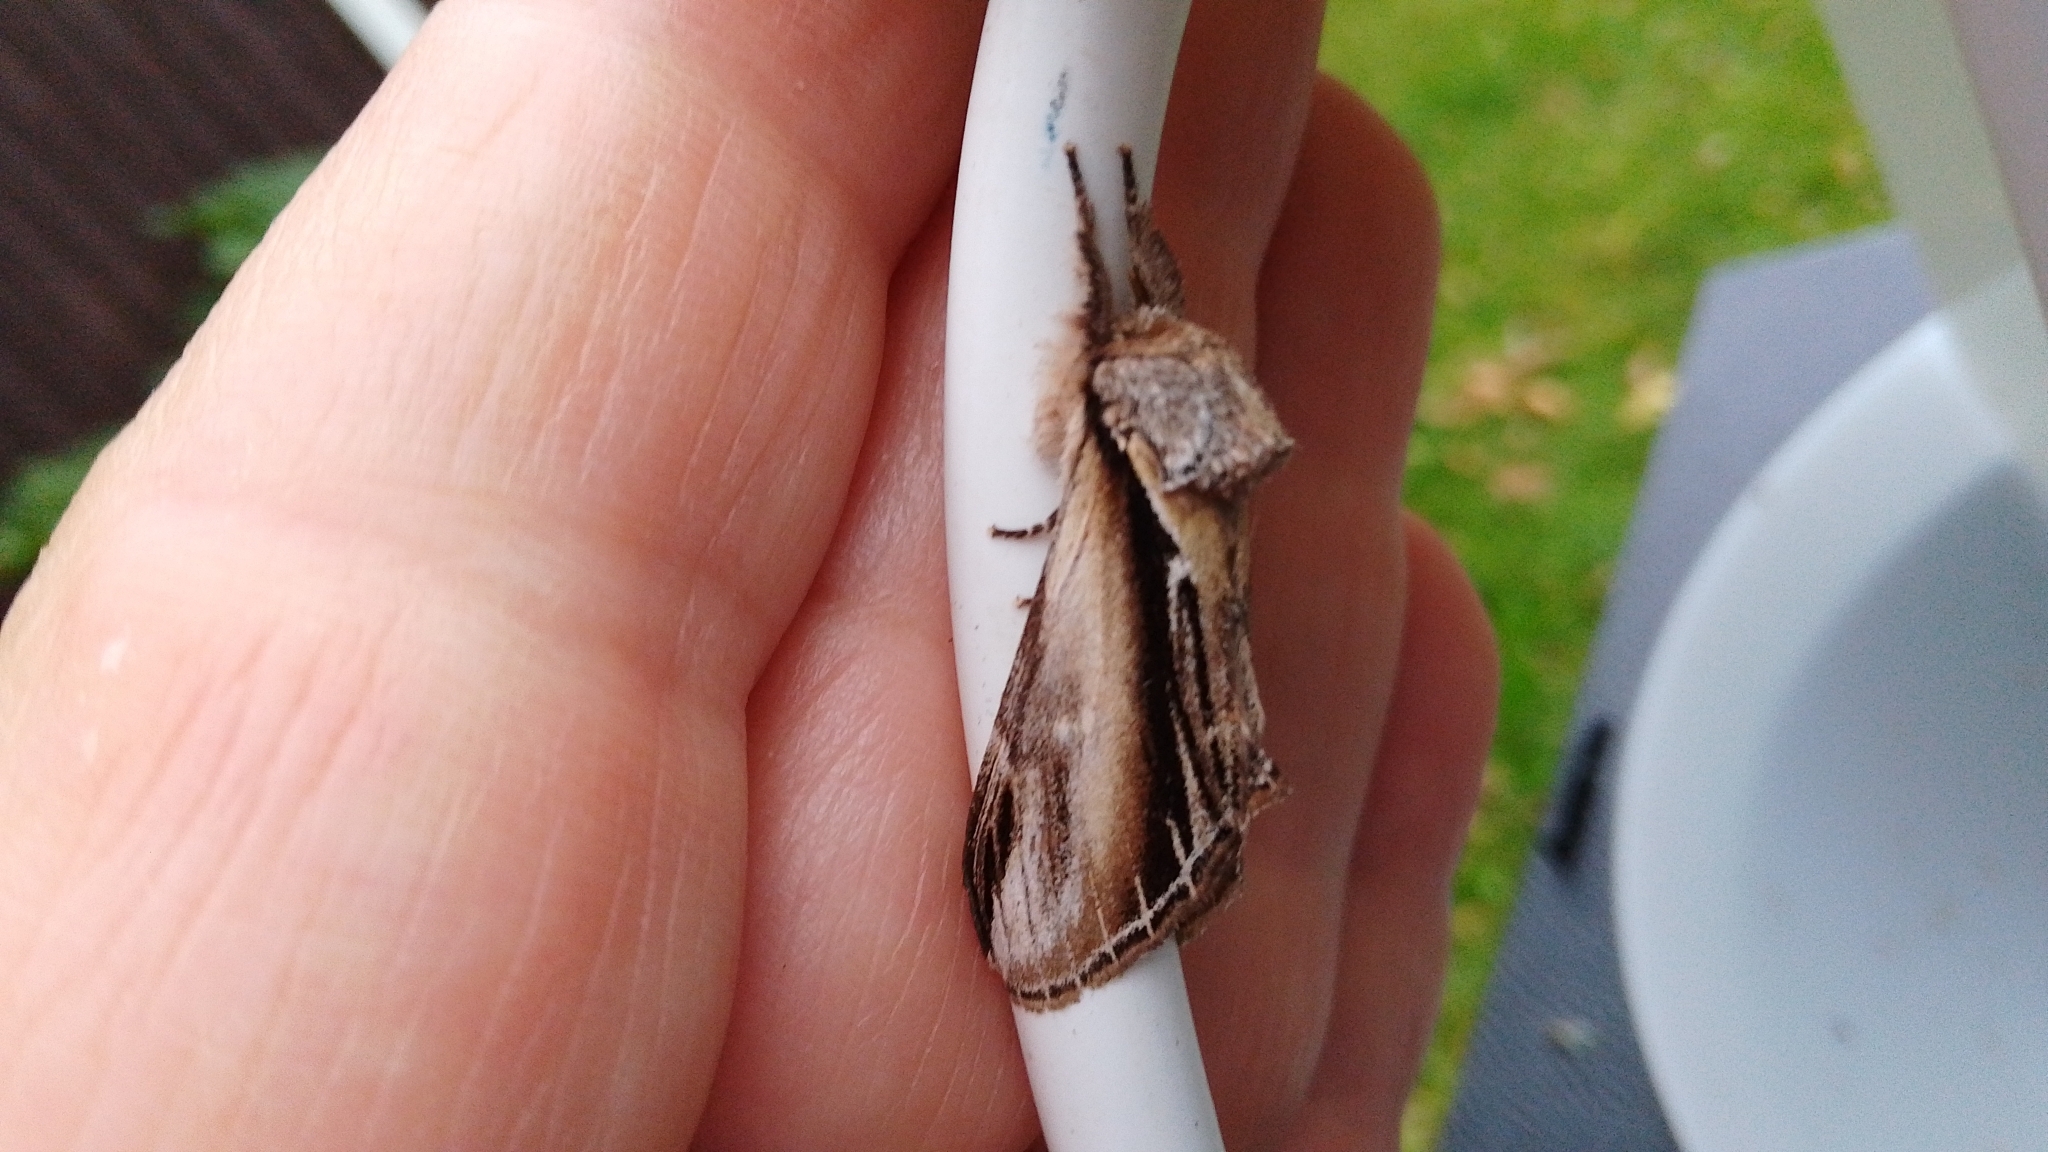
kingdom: Animalia
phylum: Arthropoda
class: Insecta
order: Lepidoptera
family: Notodontidae
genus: Pheosia
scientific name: Pheosia tremula
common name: Swallow prominent
